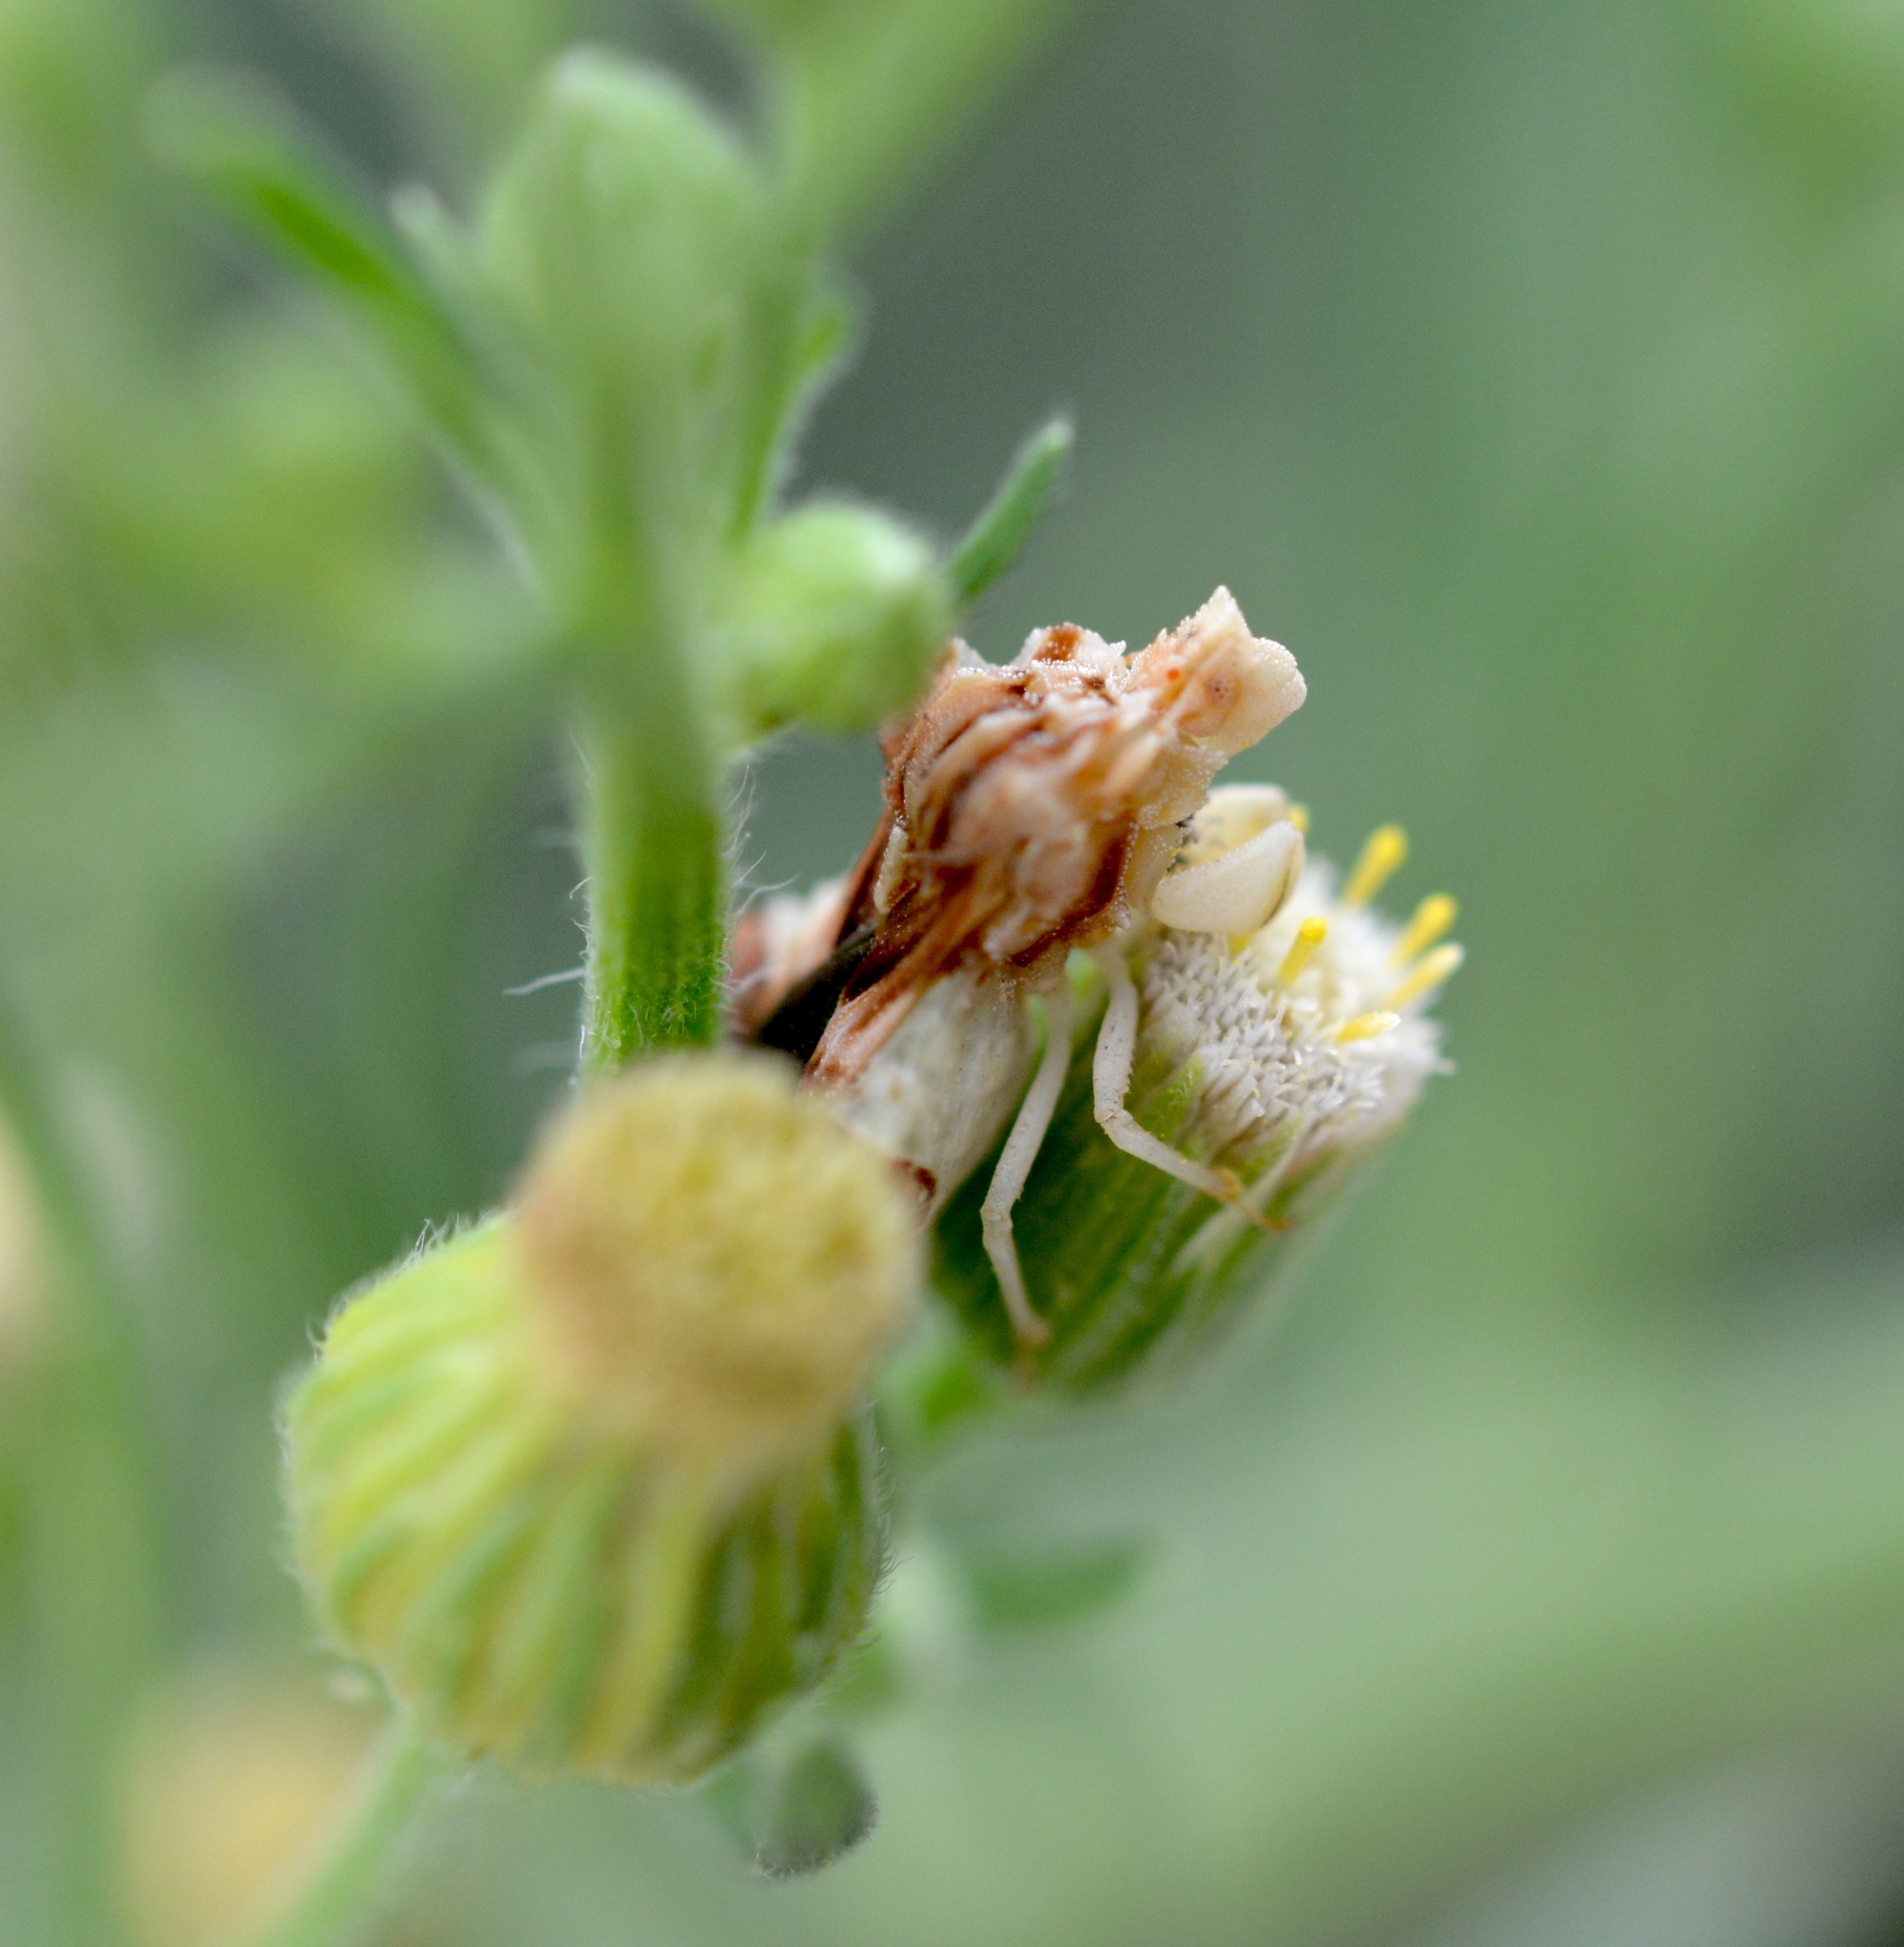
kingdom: Animalia
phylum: Arthropoda
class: Insecta
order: Hemiptera
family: Reduviidae
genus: Phymata
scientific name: Phymata fasciata
